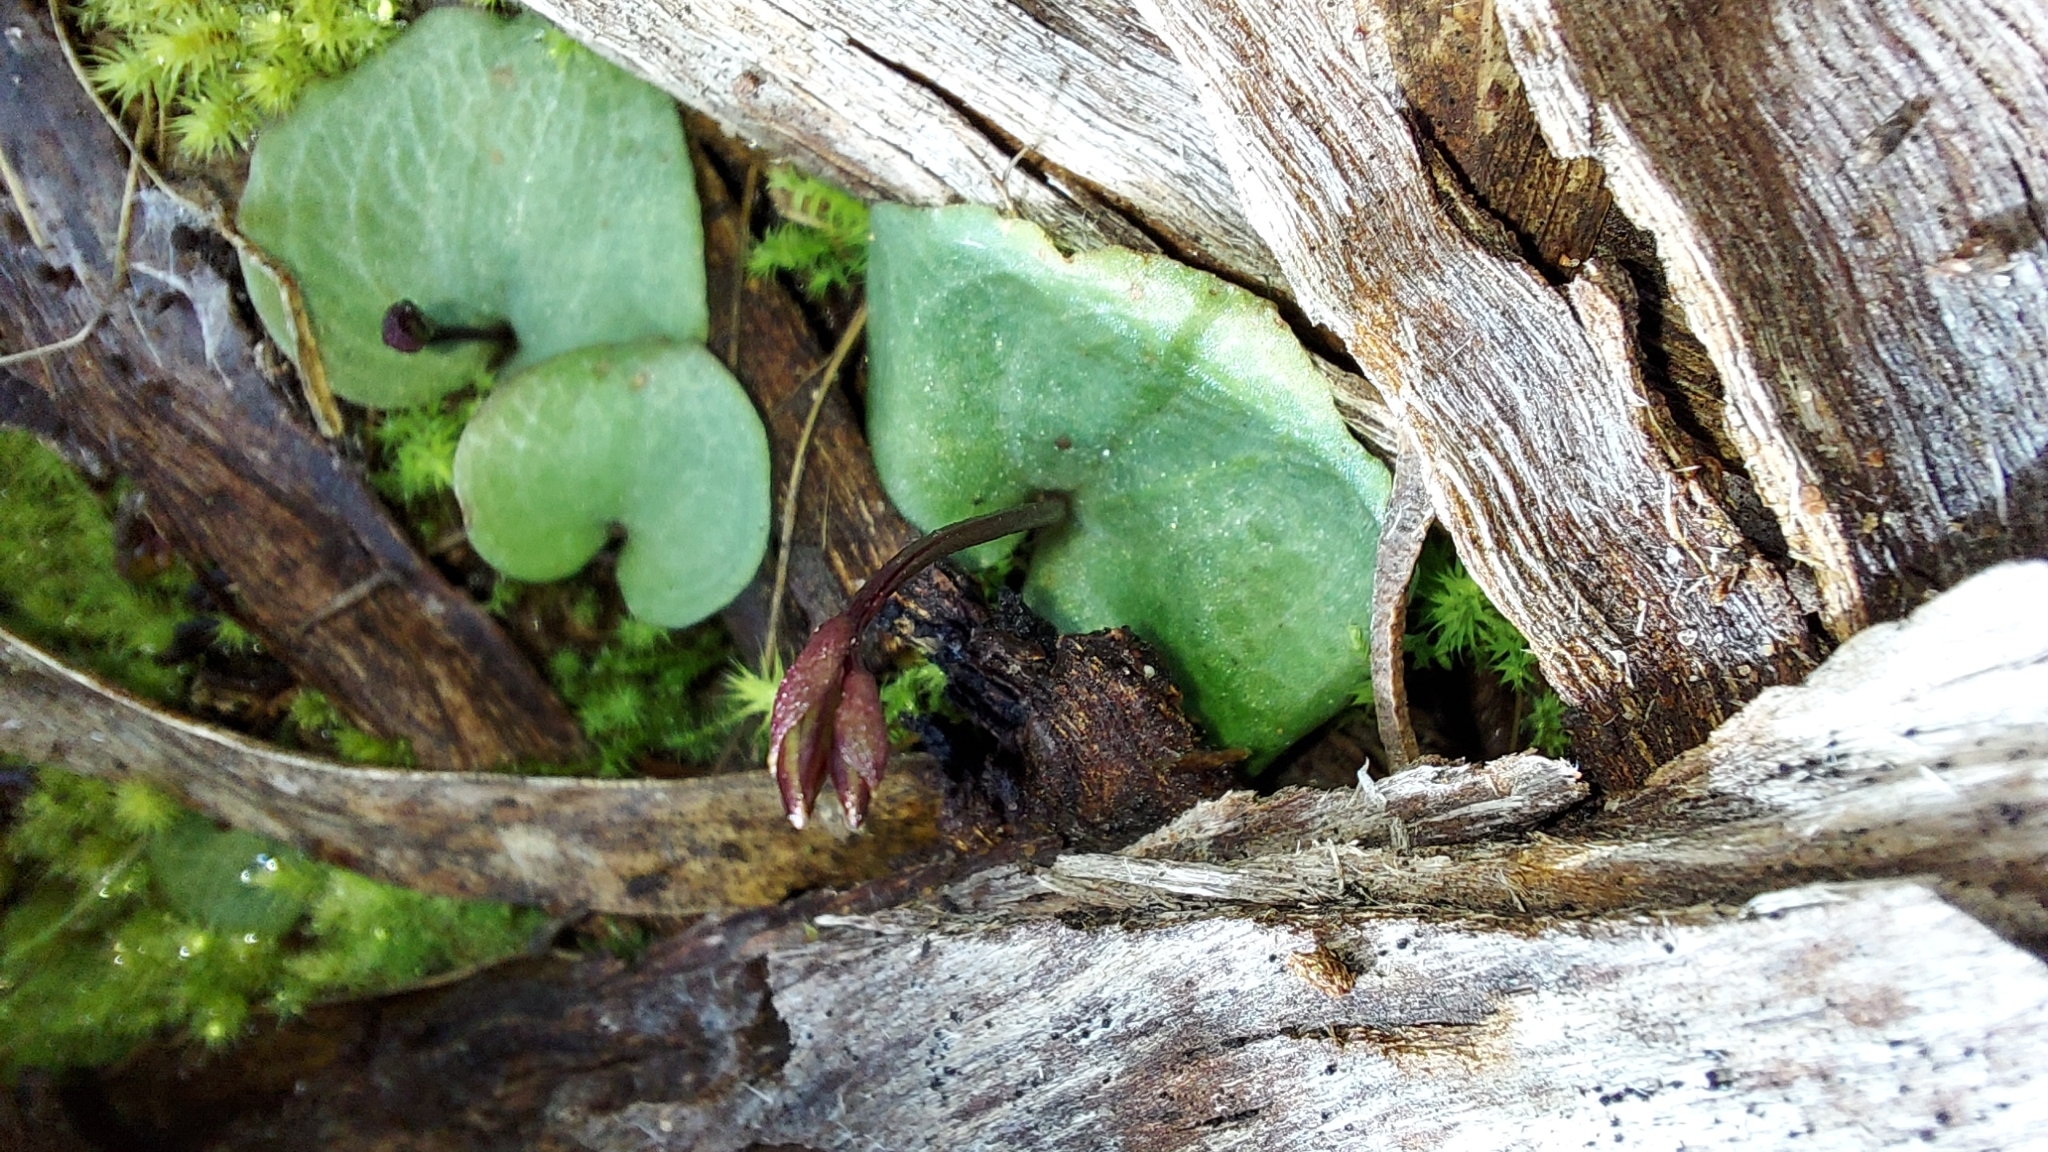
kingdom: Plantae
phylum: Tracheophyta
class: Liliopsida
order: Asparagales
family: Orchidaceae
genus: Cyrtostylis
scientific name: Cyrtostylis reniformis
